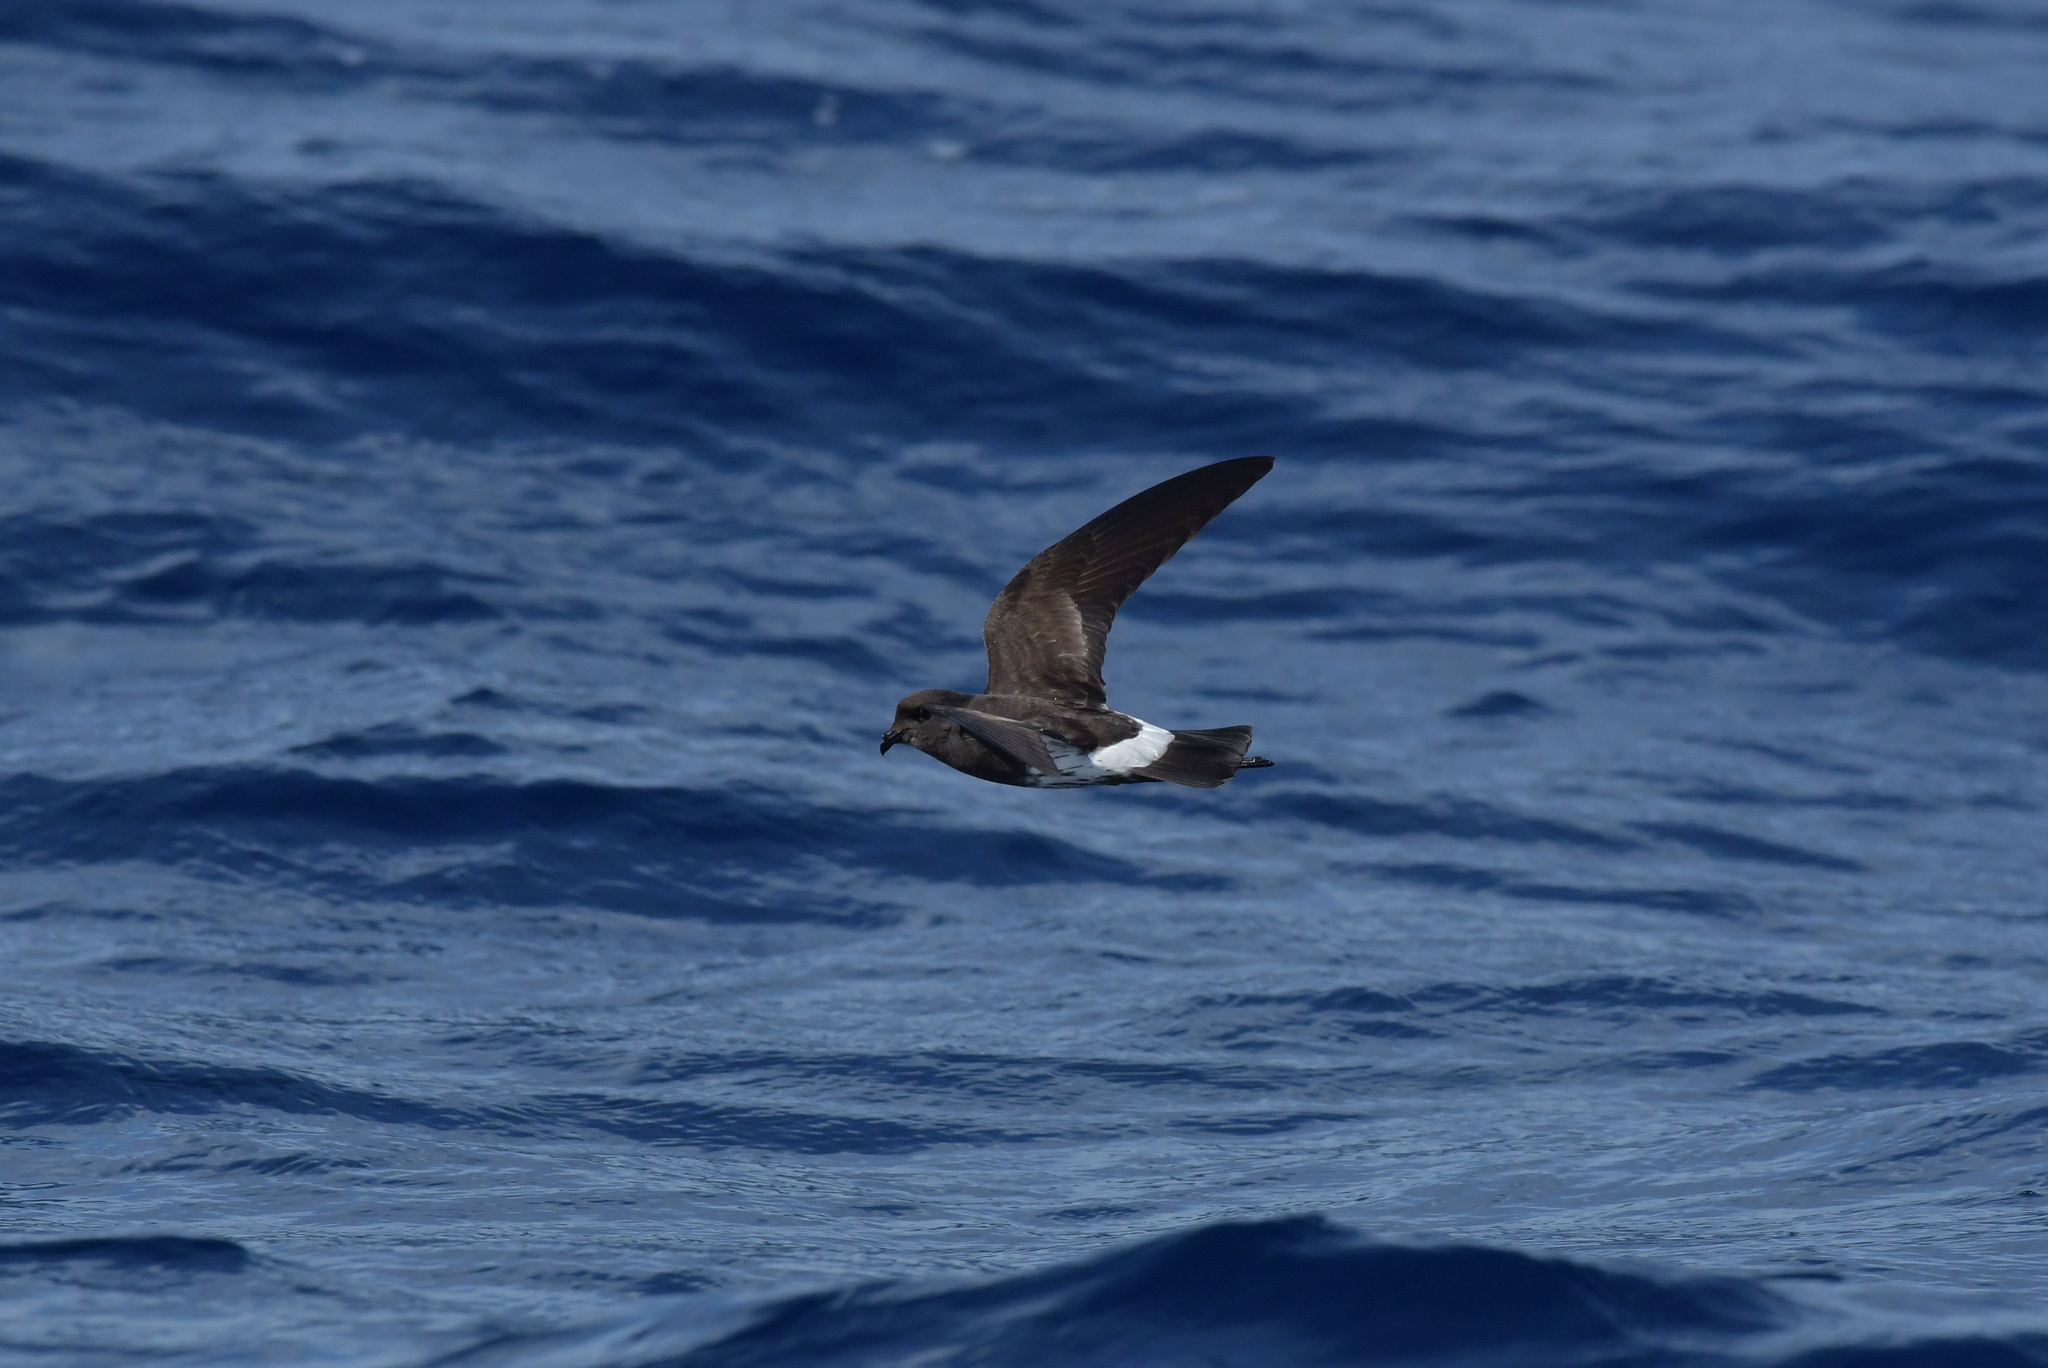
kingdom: Animalia
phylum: Chordata
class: Aves
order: Procellariiformes
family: Hydrobatidae
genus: Oceanites
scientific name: Oceanites maorianus
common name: New zealand storm petrel
